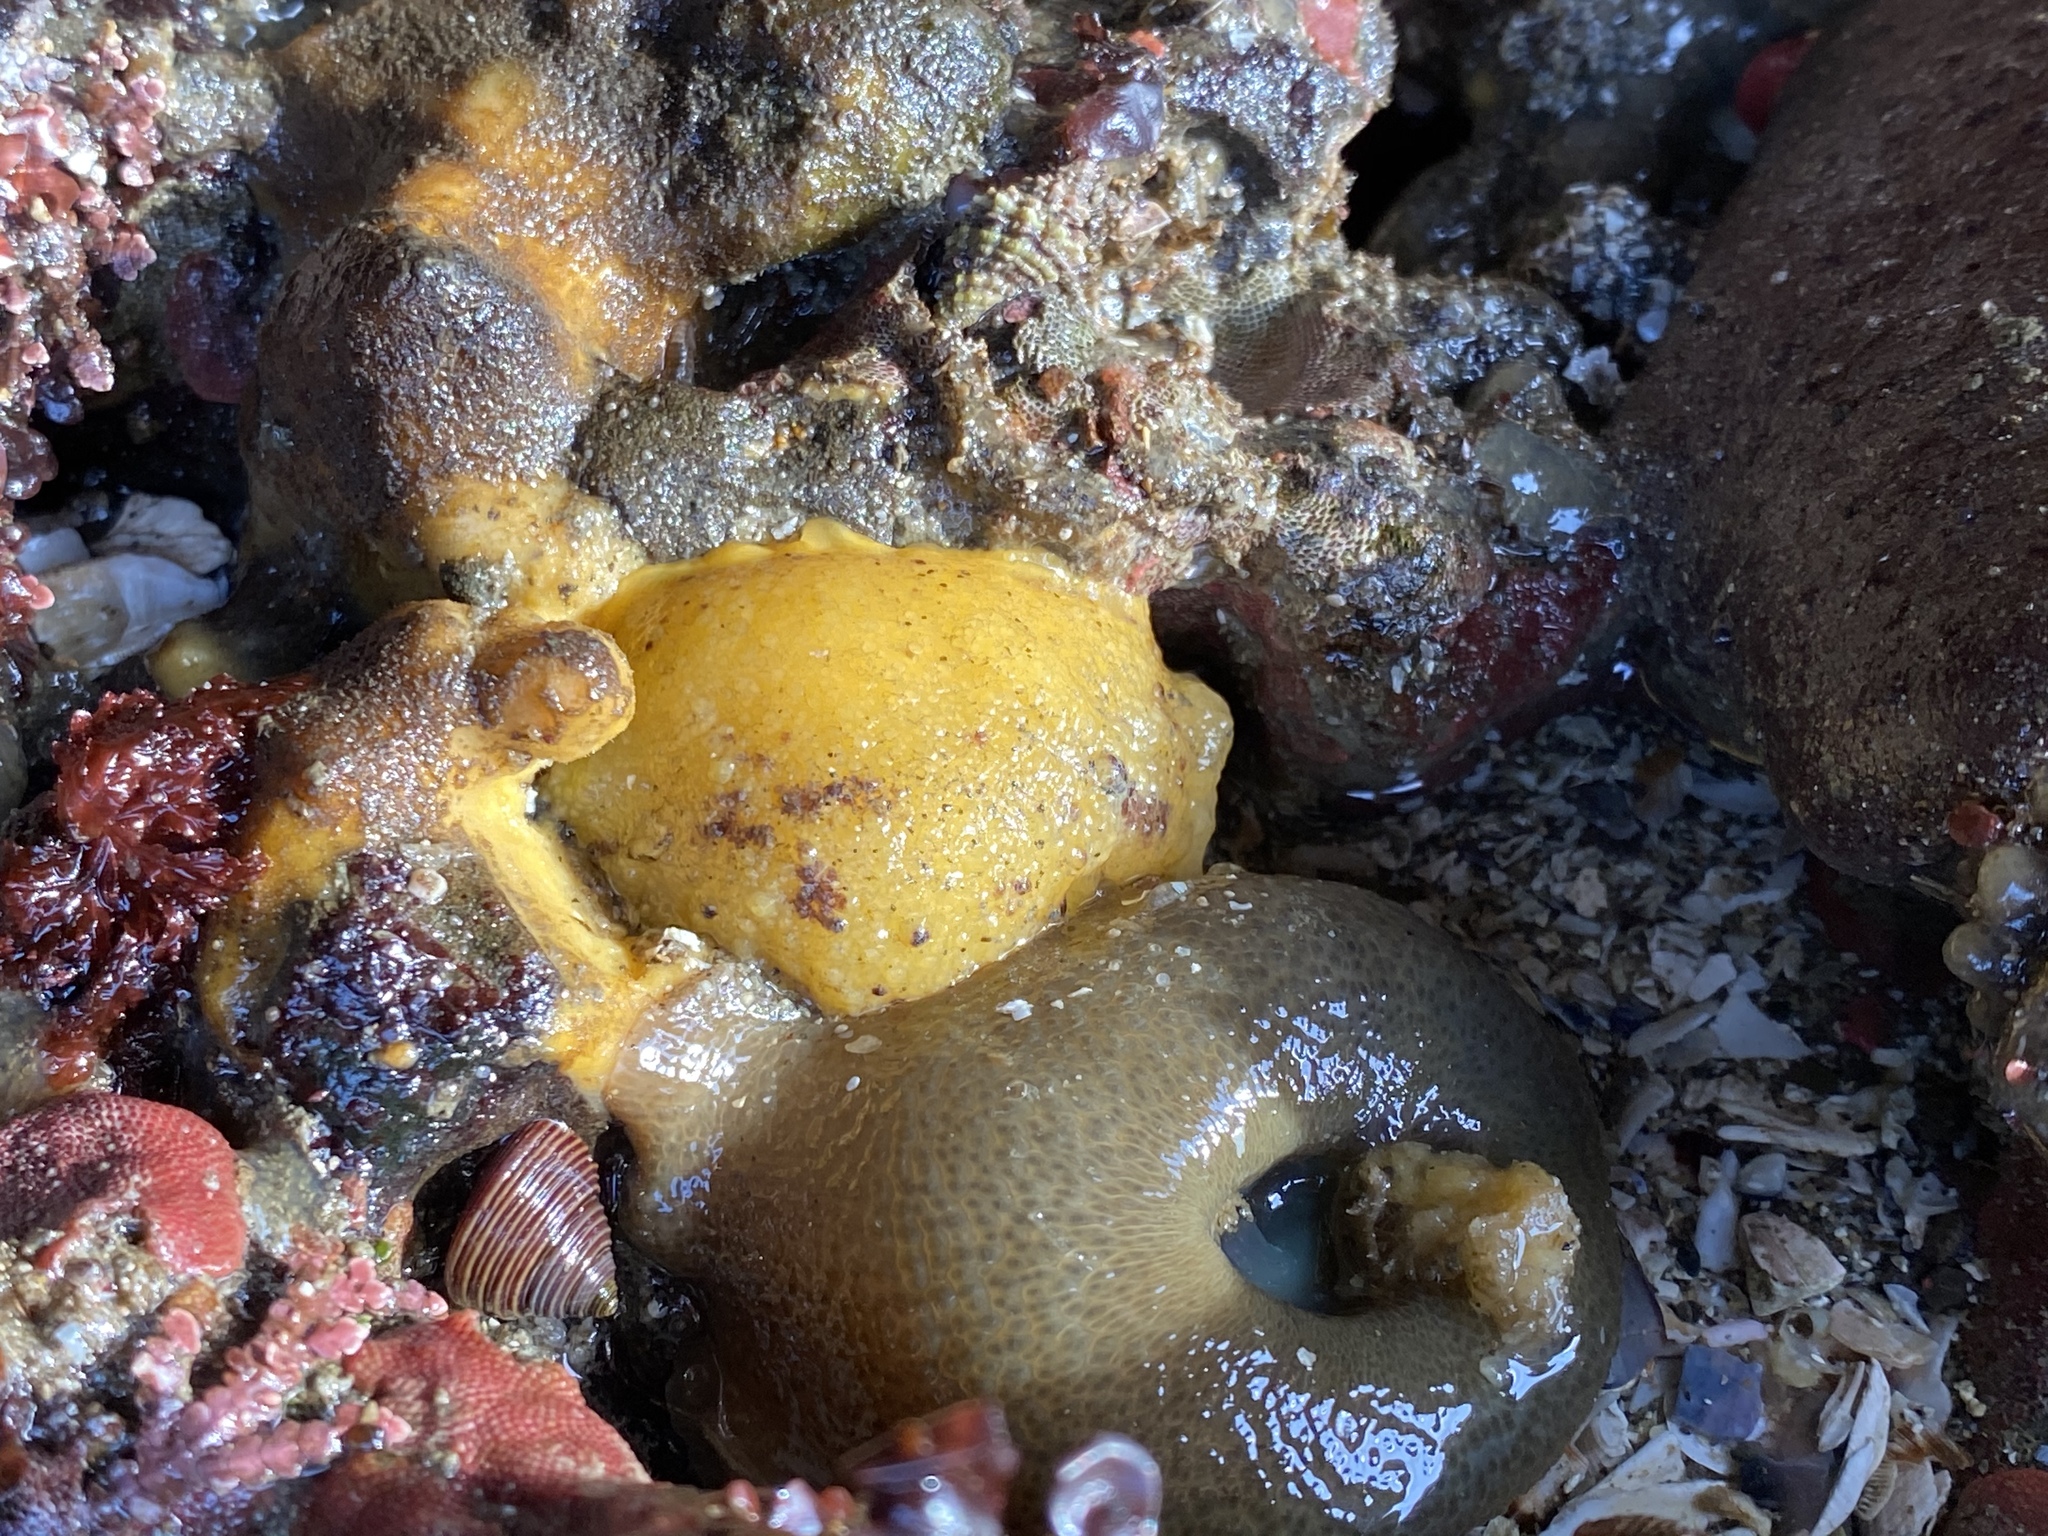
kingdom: Animalia
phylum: Mollusca
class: Gastropoda
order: Nudibranchia
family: Dorididae
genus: Doris
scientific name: Doris montereyensis
